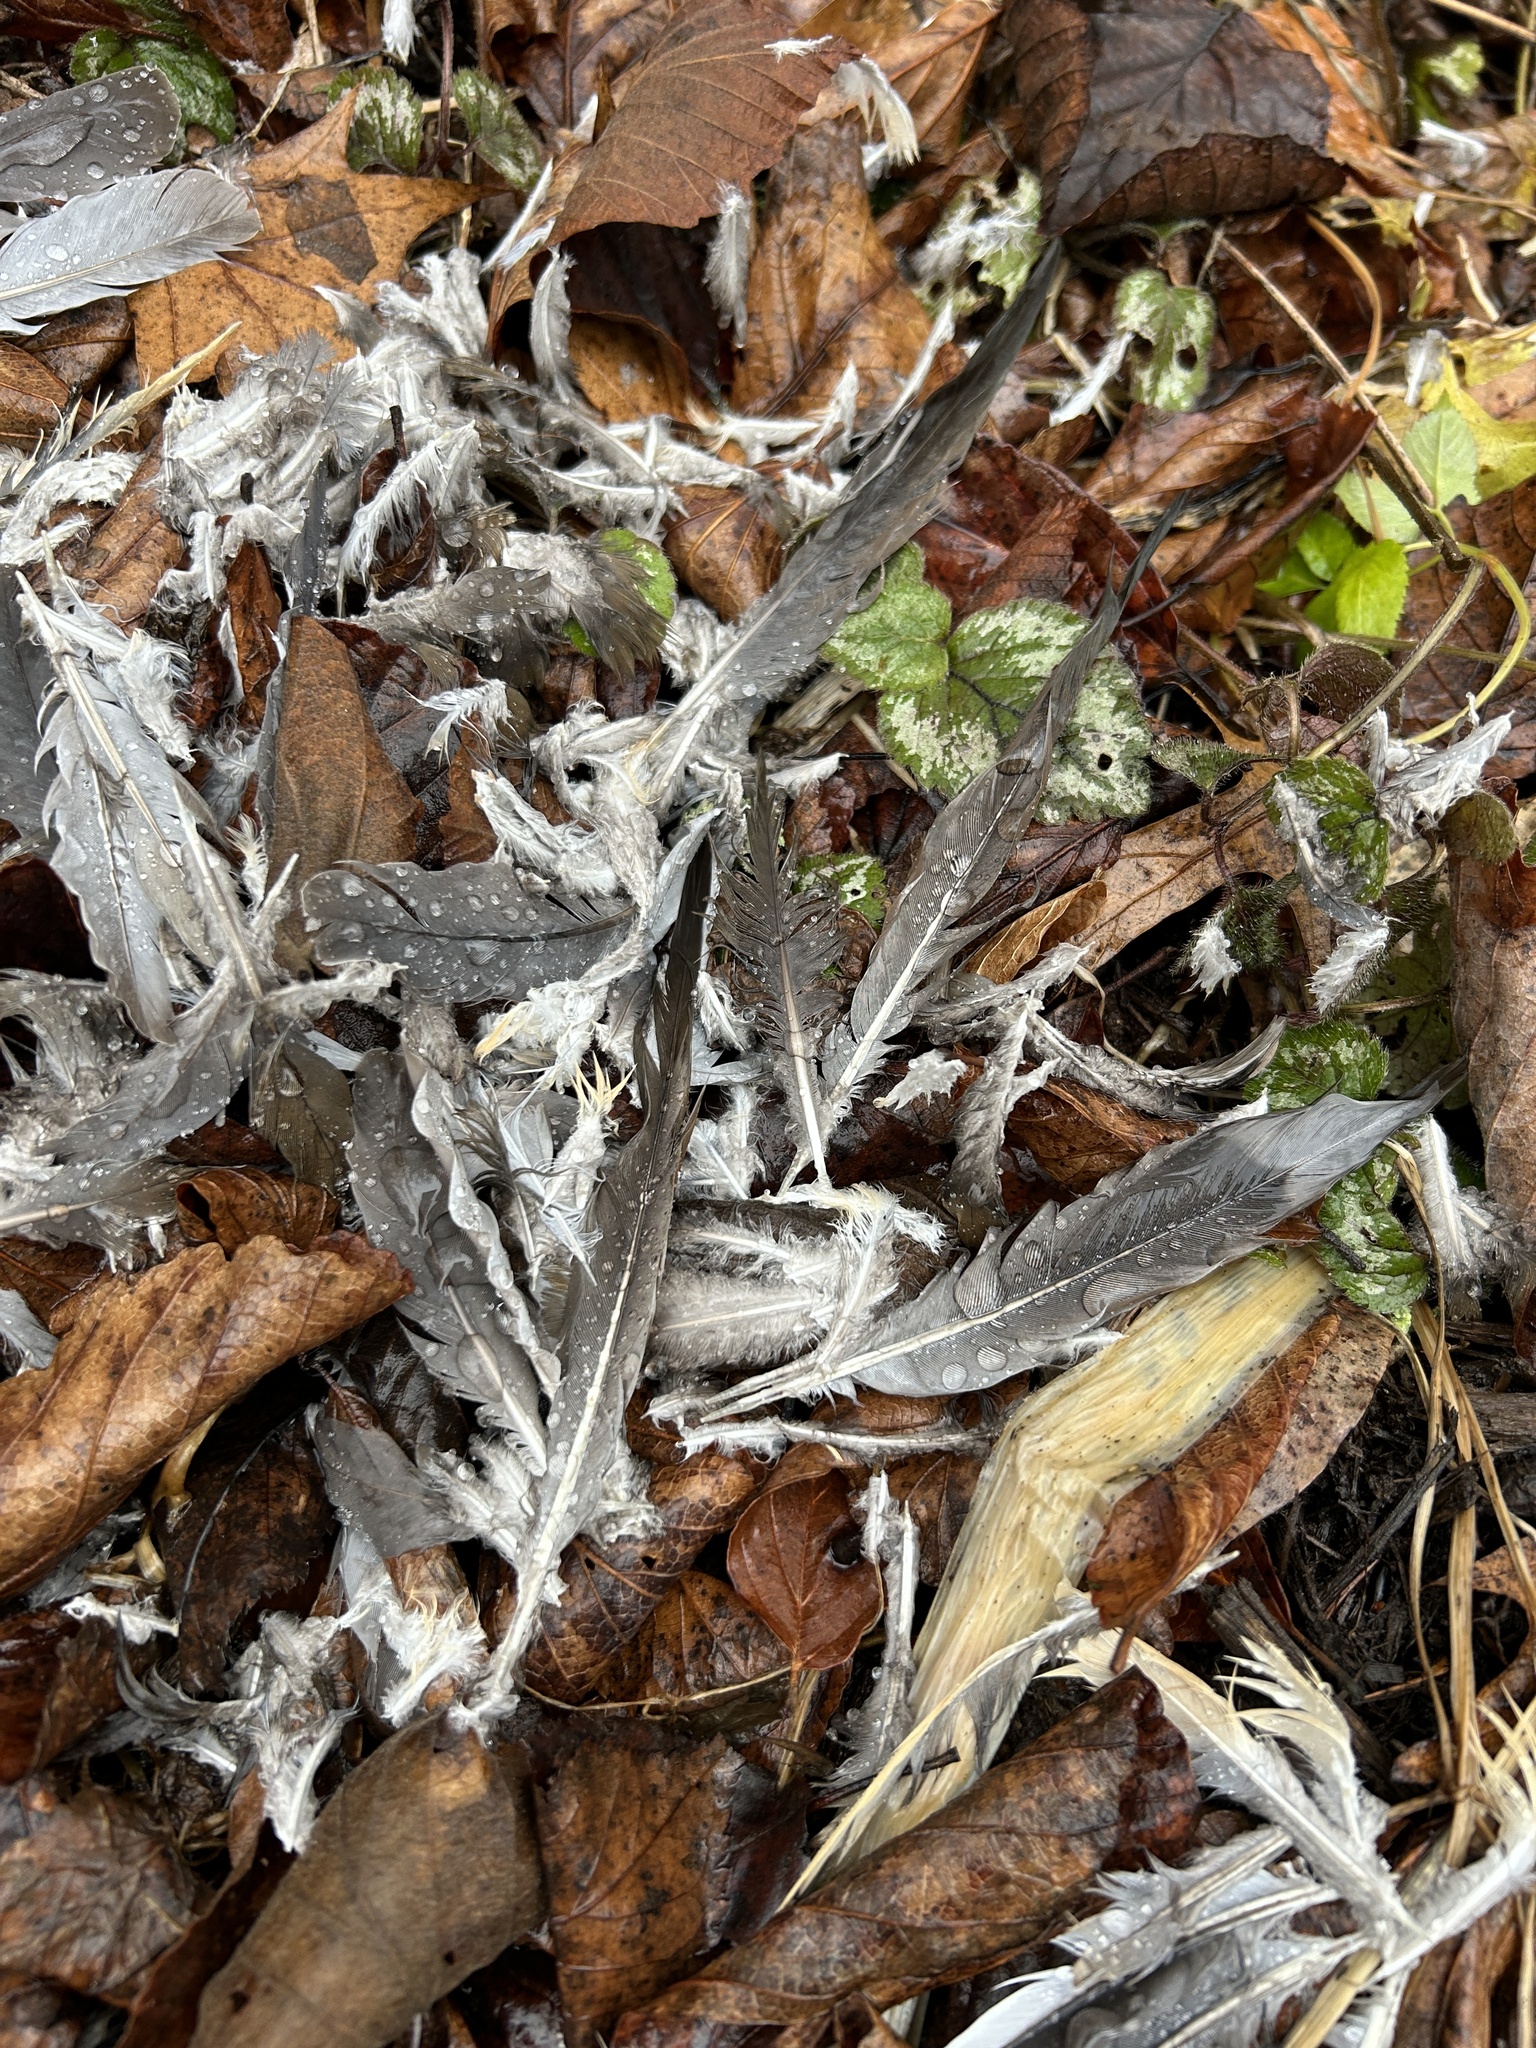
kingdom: Animalia
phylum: Chordata
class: Aves
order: Columbiformes
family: Columbidae
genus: Zenaida
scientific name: Zenaida macroura
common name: Mourning dove
